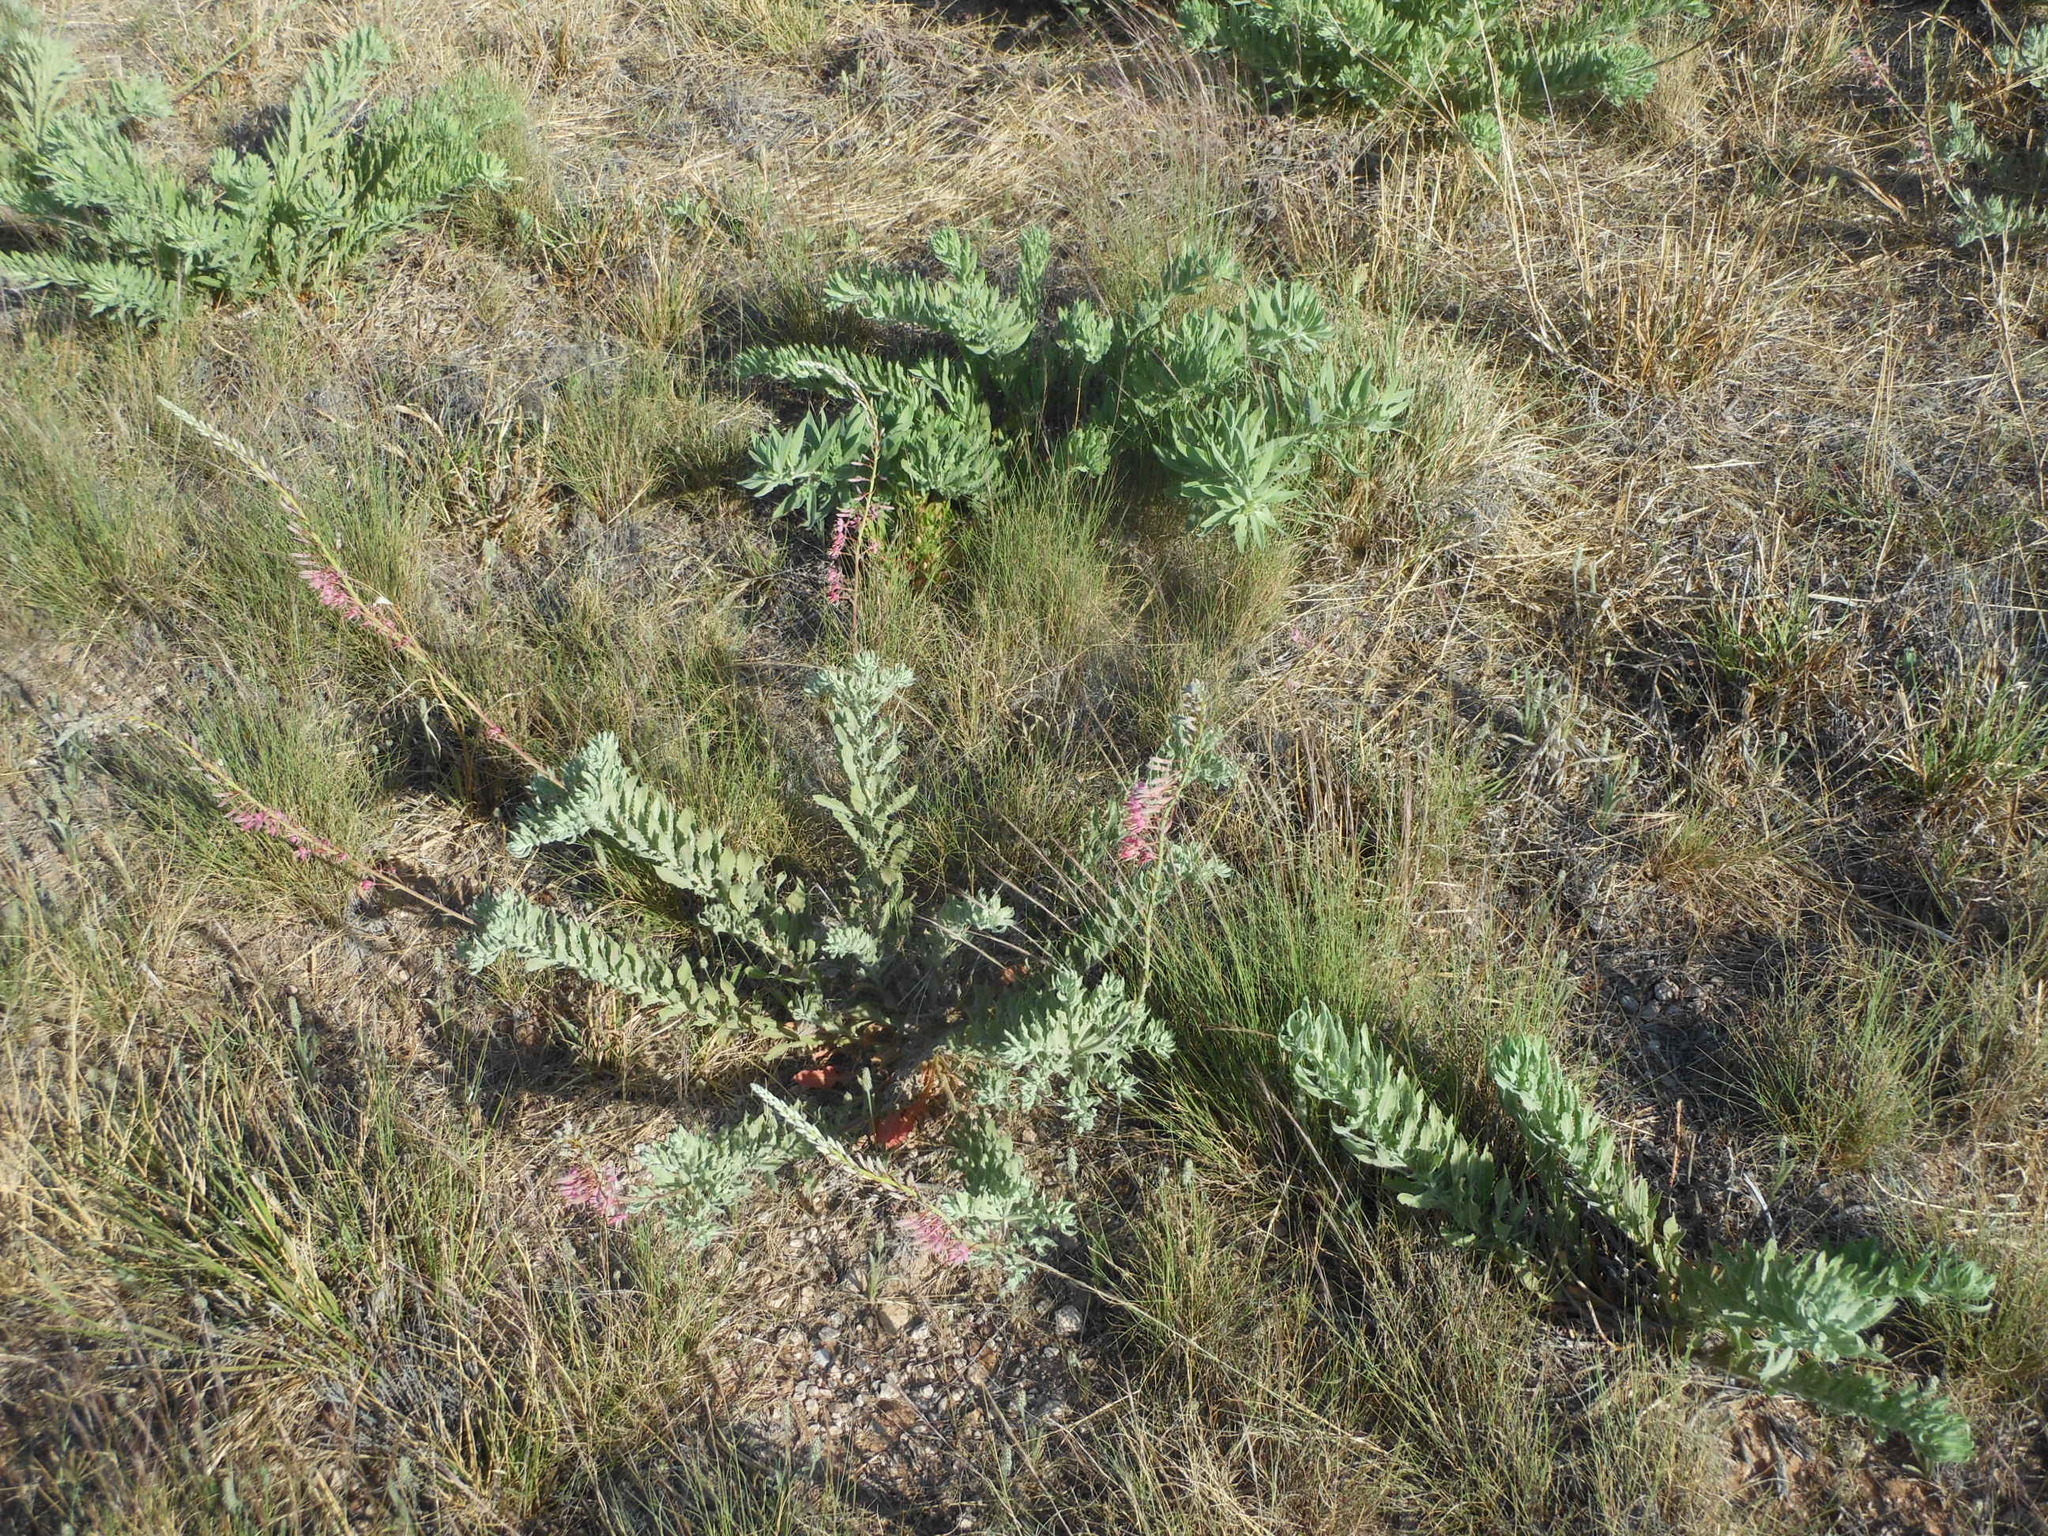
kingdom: Plantae
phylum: Tracheophyta
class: Magnoliopsida
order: Myrtales
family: Onagraceae
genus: Oenothera
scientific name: Oenothera cinerea
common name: Woolly beeblossom
